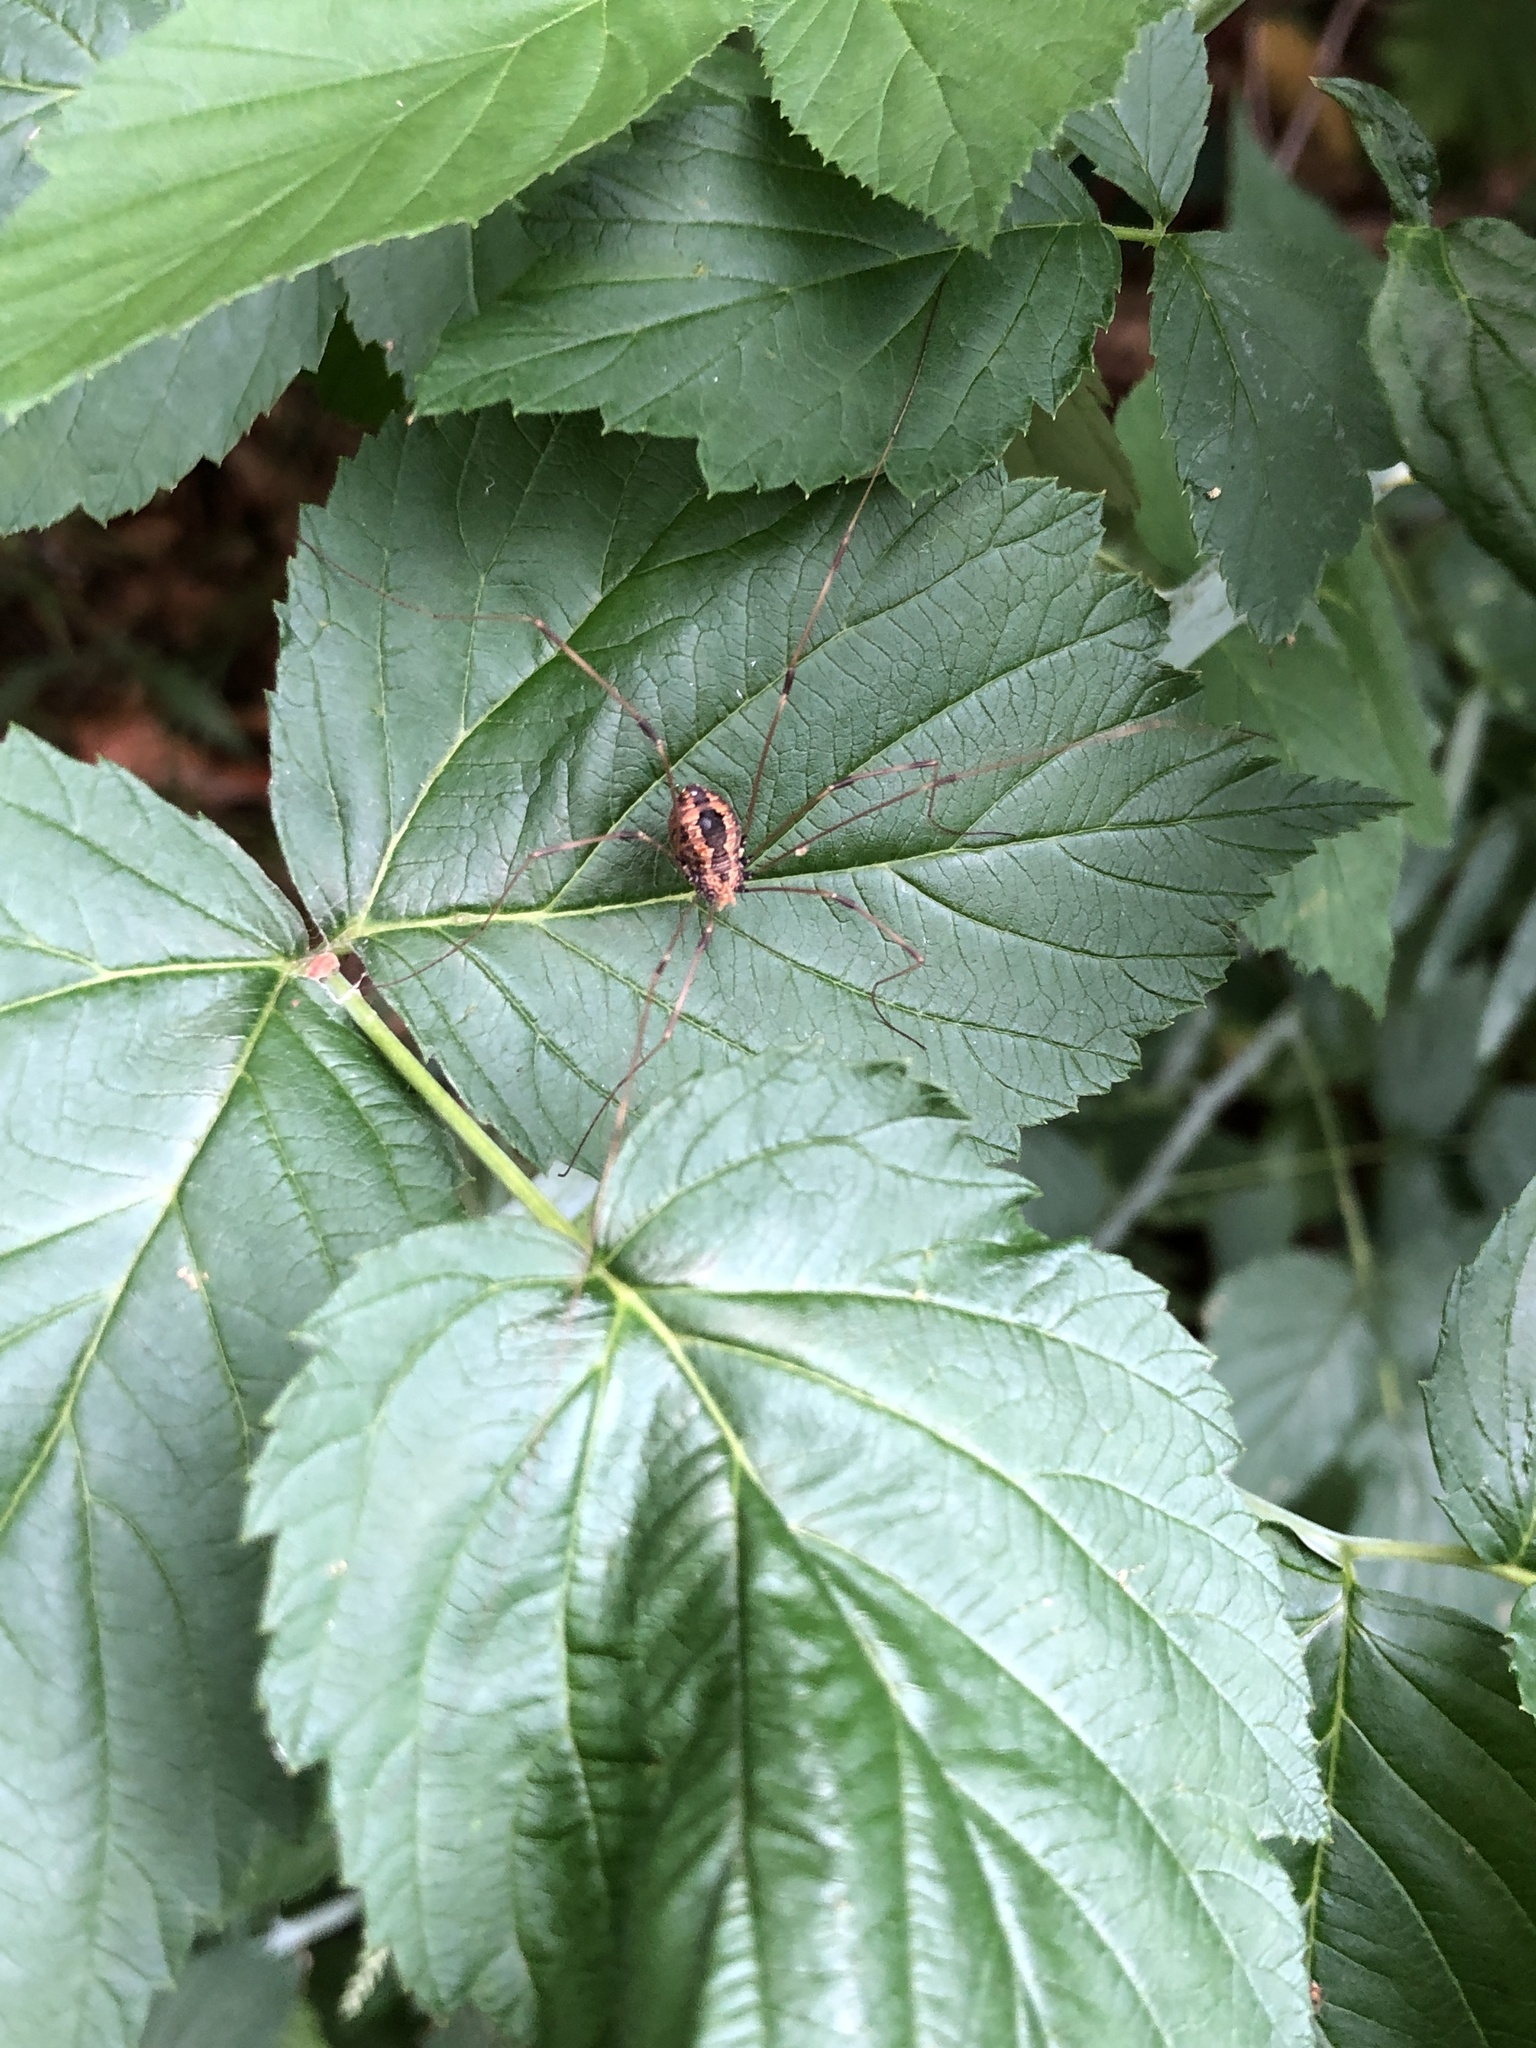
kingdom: Animalia
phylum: Arthropoda
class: Arachnida
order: Opiliones
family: Sclerosomatidae
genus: Leiobunum
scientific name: Leiobunum vittatum
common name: Eastern harvestman
